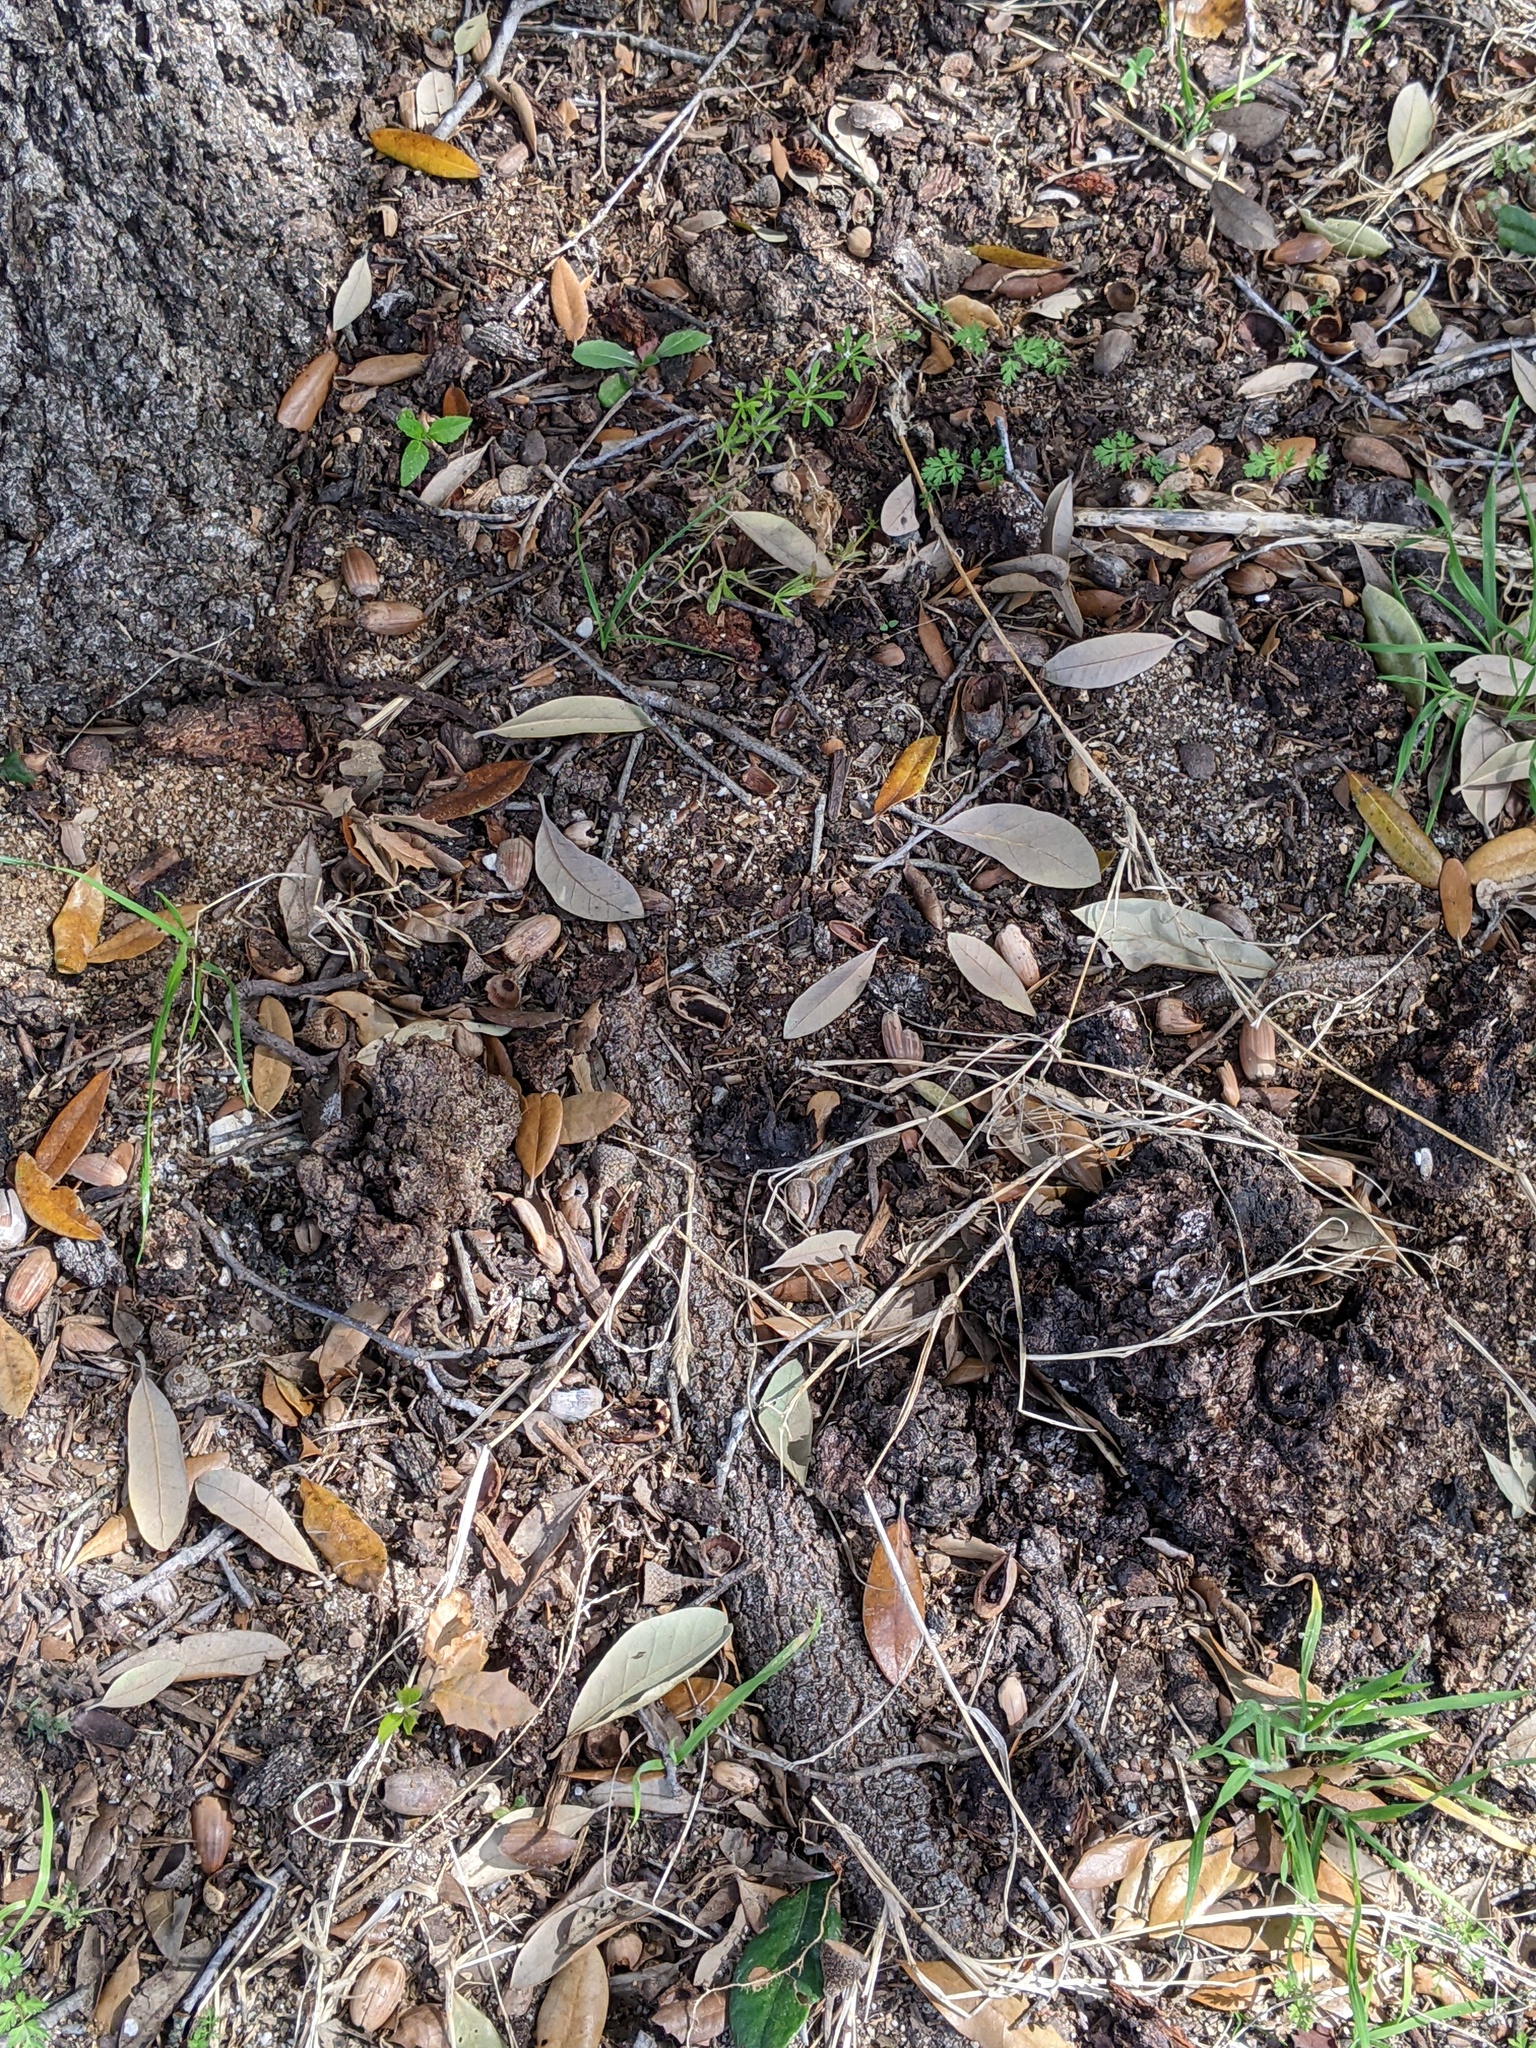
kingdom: Animalia
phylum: Arthropoda
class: Insecta
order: Hymenoptera
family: Formicidae
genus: Tapinoma
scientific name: Tapinoma melanocephalum
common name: Ghost ant
